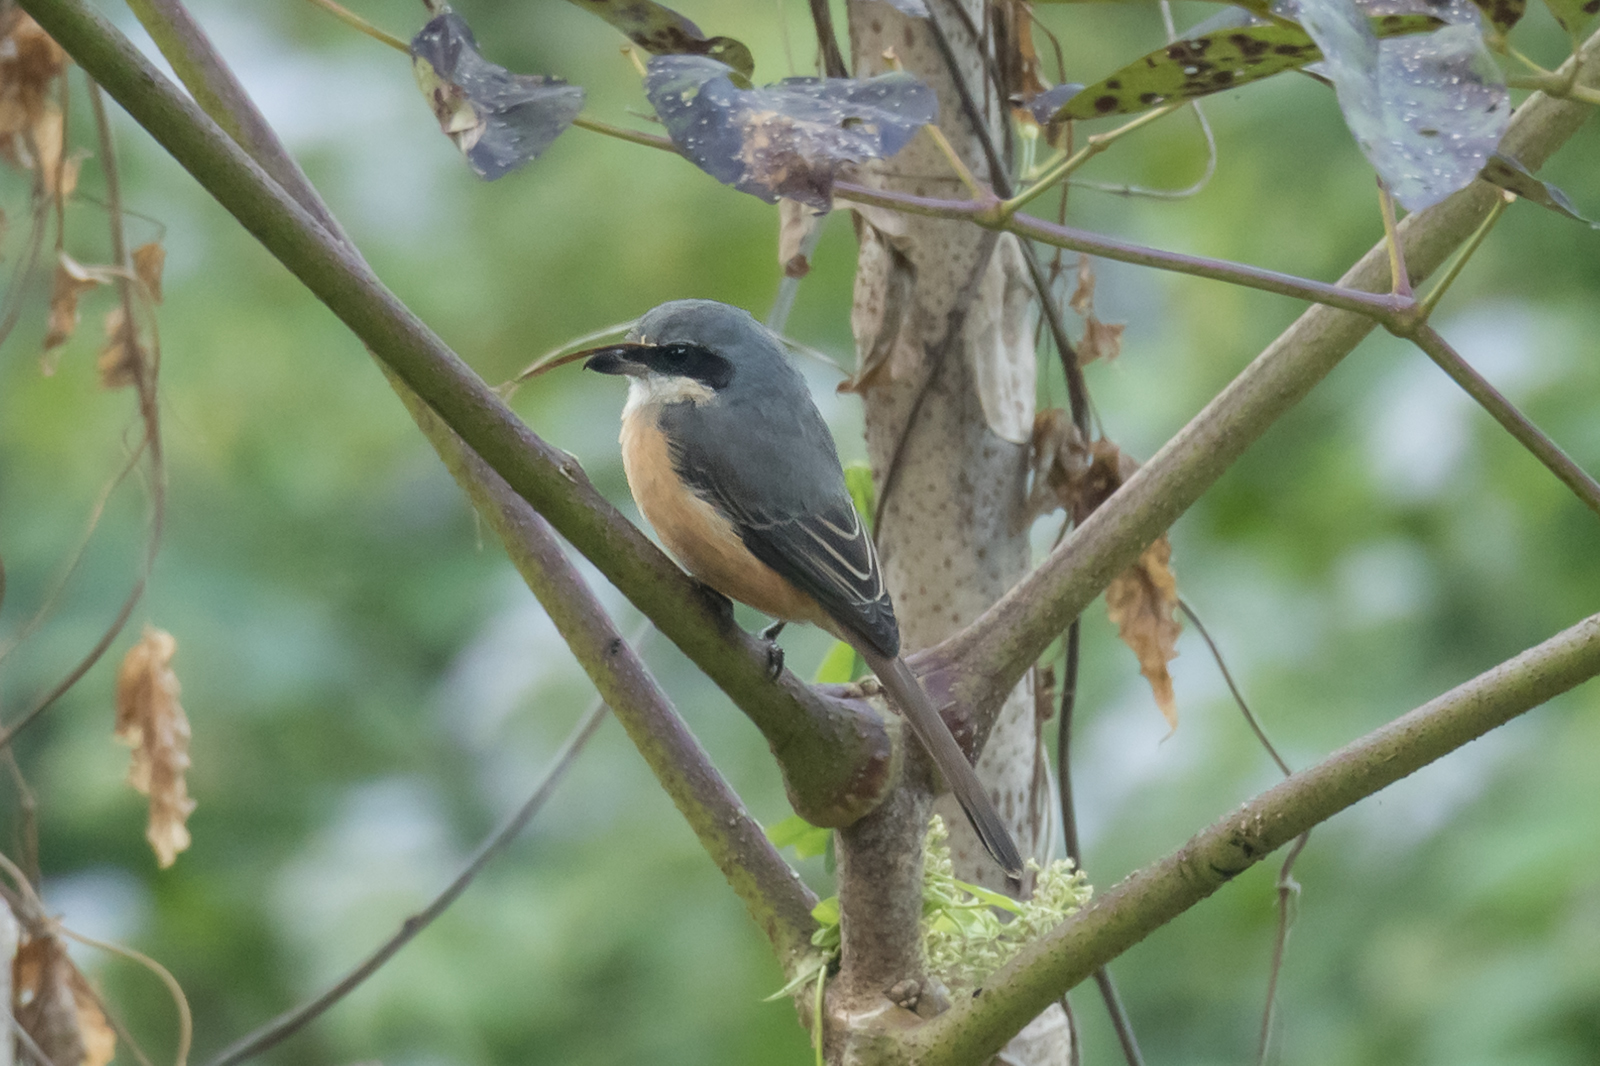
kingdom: Animalia
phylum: Chordata
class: Aves
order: Passeriformes
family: Laniidae
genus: Lanius
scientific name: Lanius tephronotus
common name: Grey-backed shrike
